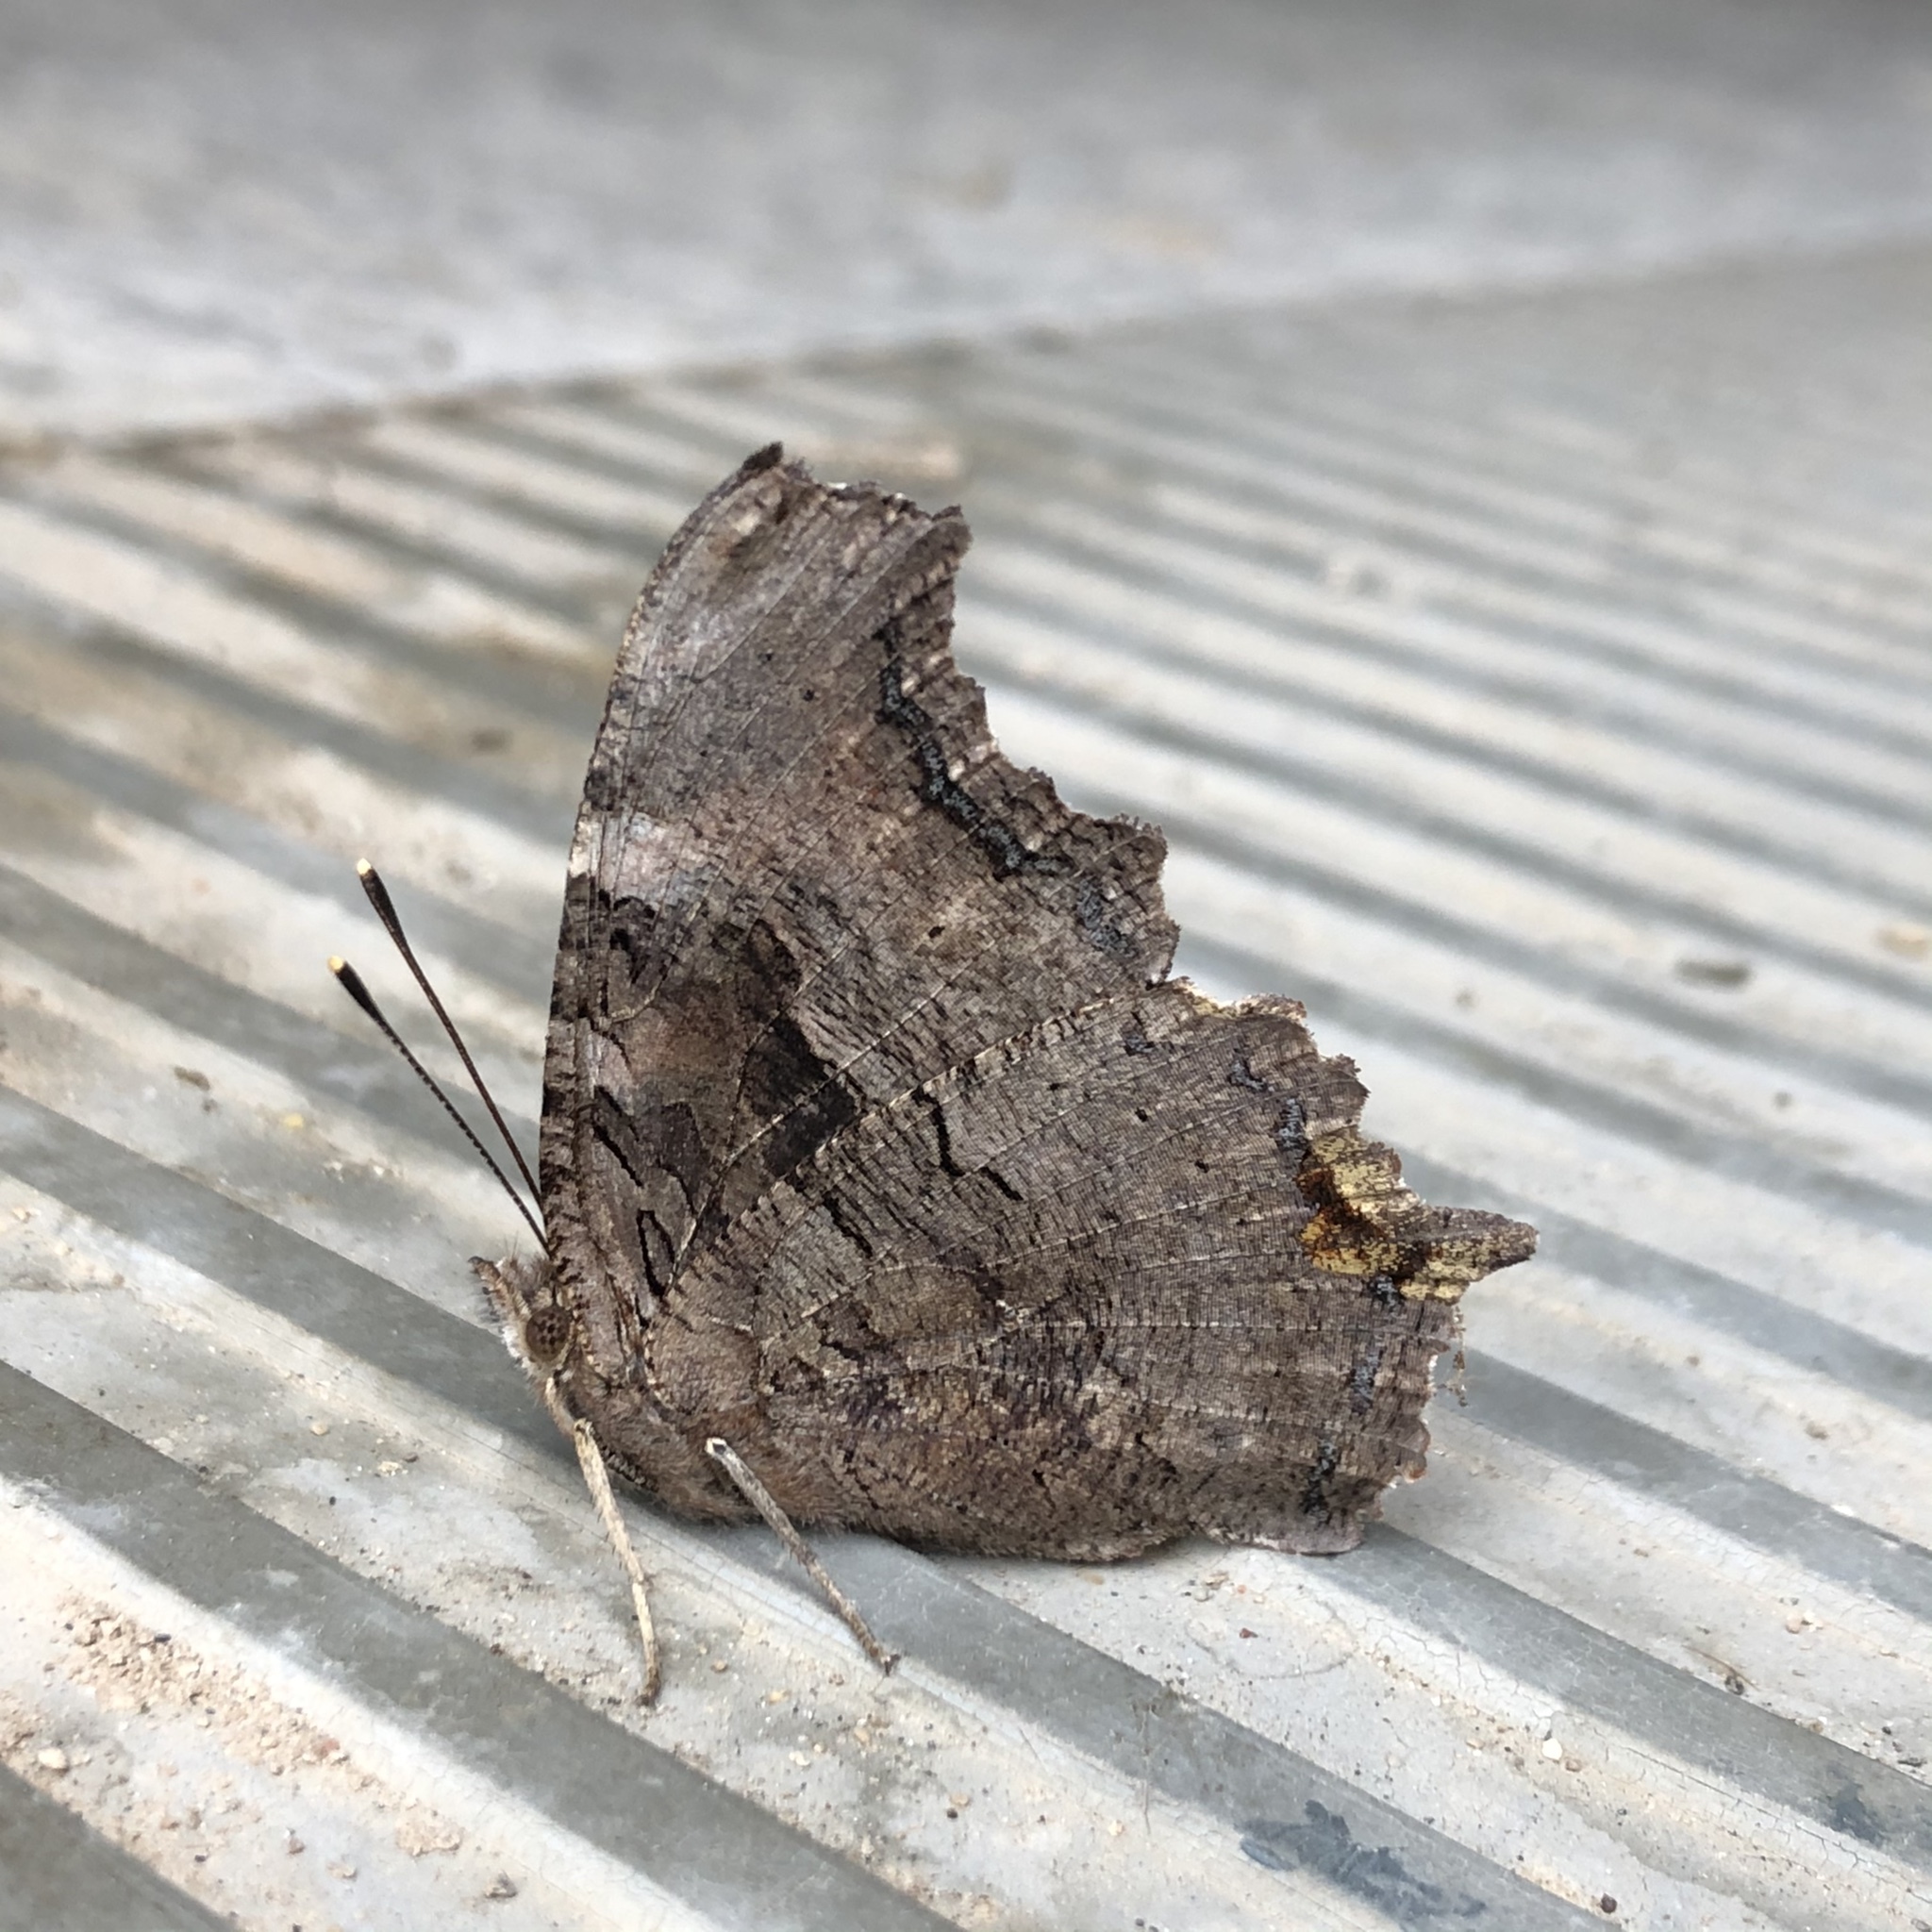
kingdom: Animalia
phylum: Arthropoda
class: Insecta
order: Lepidoptera
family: Nymphalidae
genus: Polygonia
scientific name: Polygonia vaualbum
